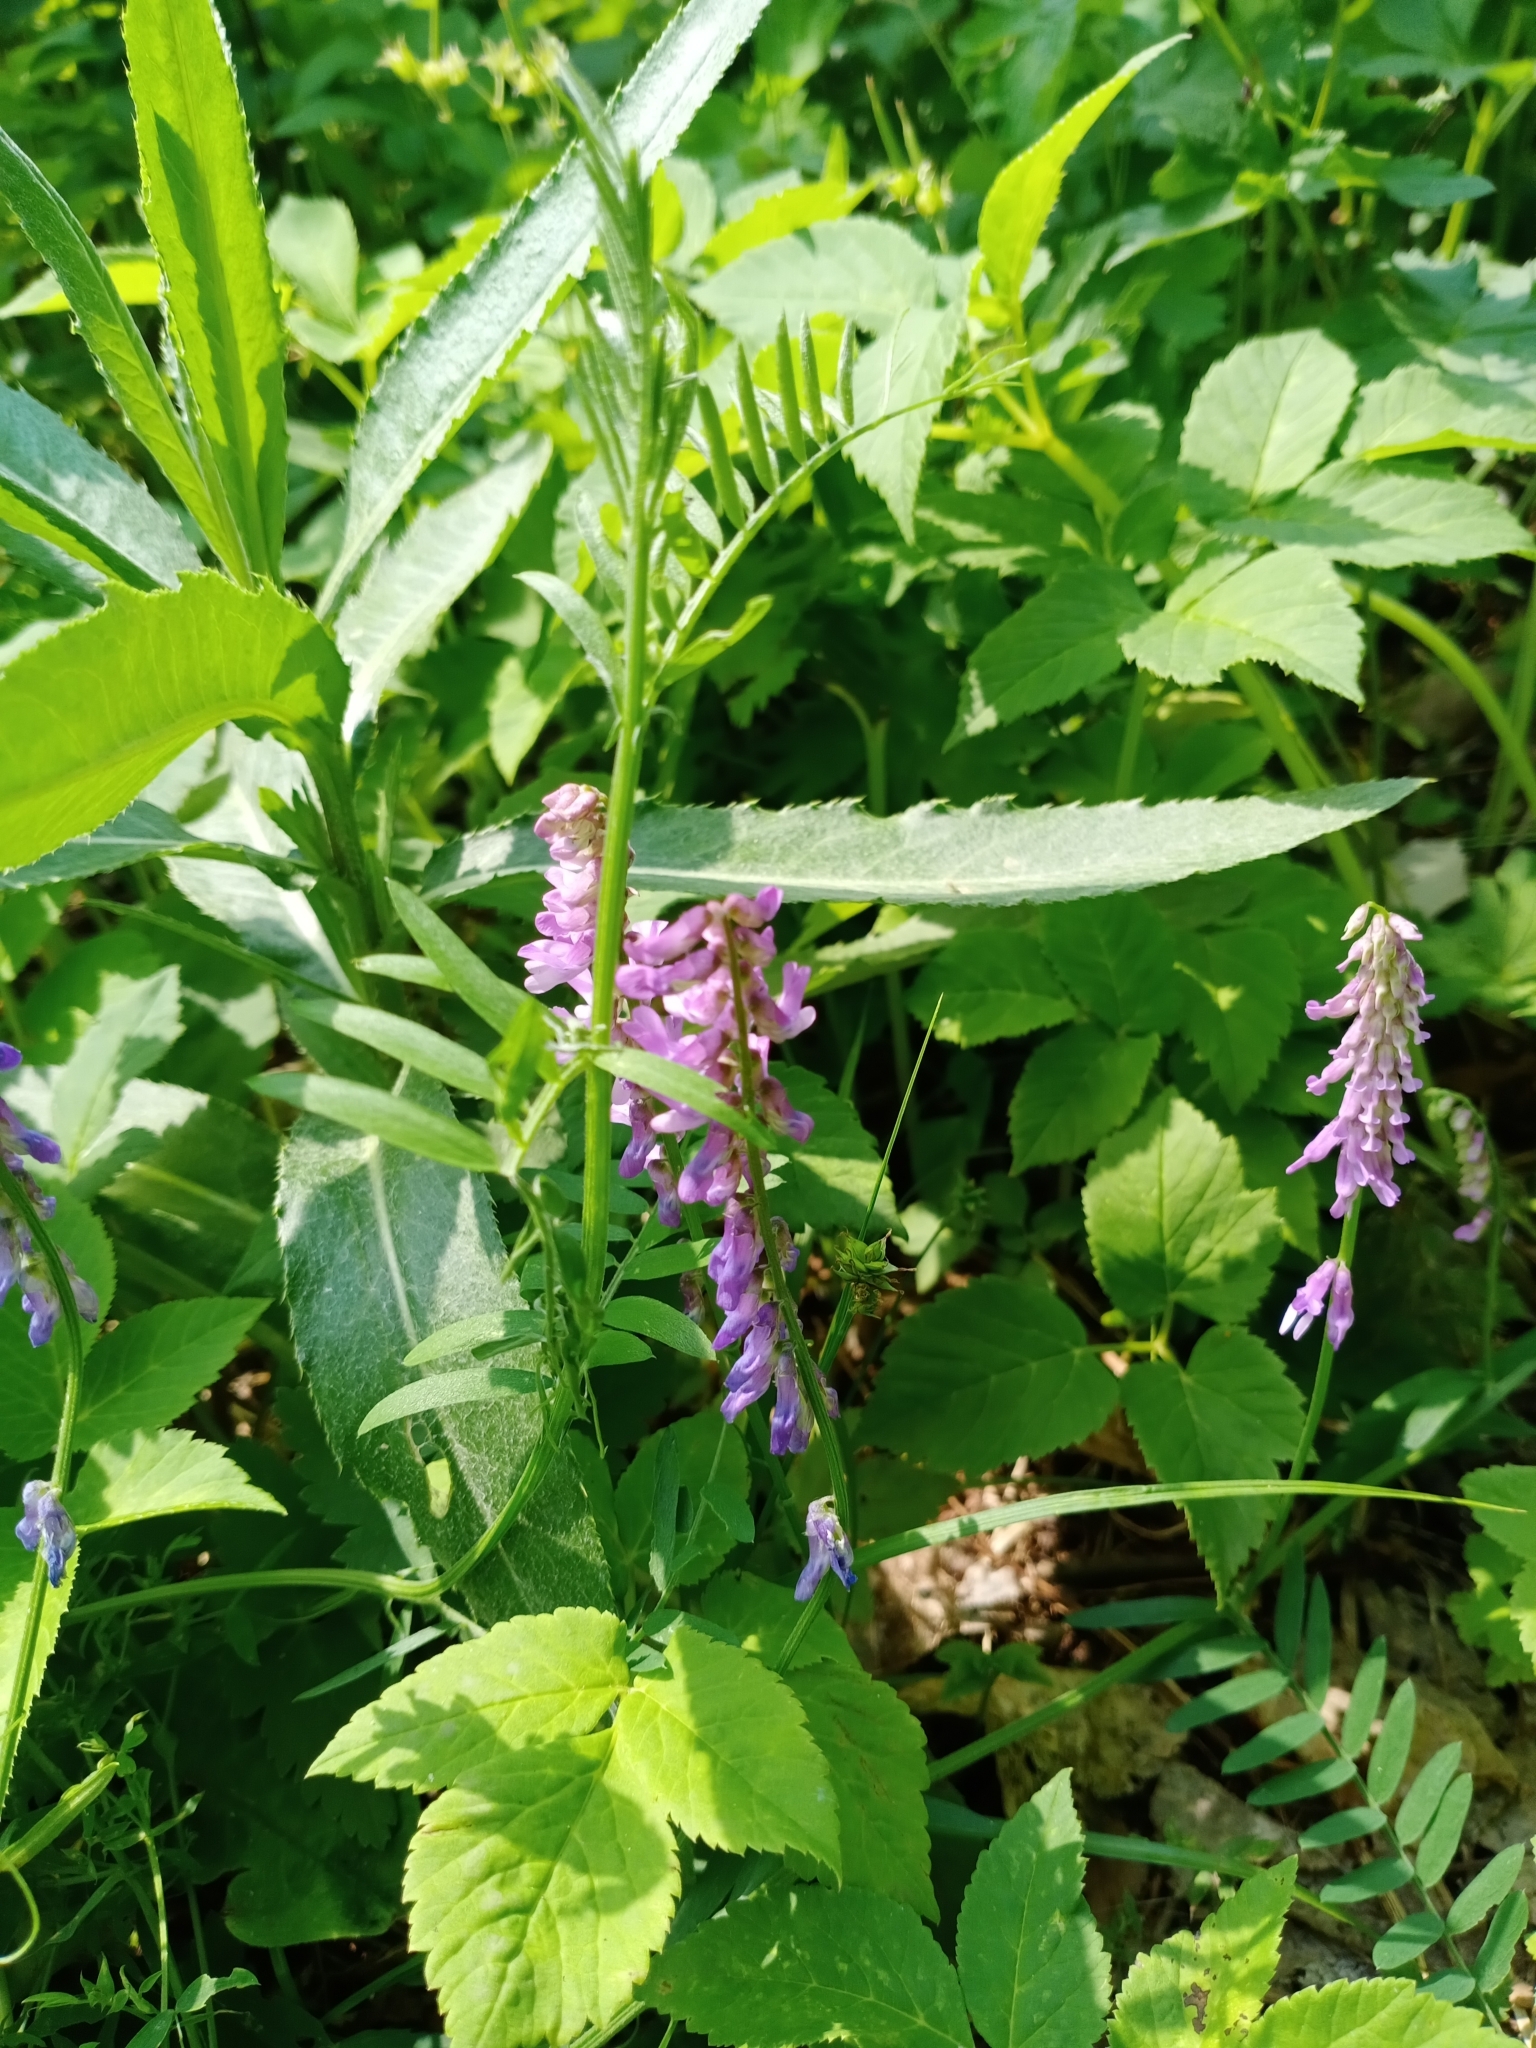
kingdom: Plantae
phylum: Tracheophyta
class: Magnoliopsida
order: Fabales
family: Fabaceae
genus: Vicia
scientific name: Vicia cracca
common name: Bird vetch
